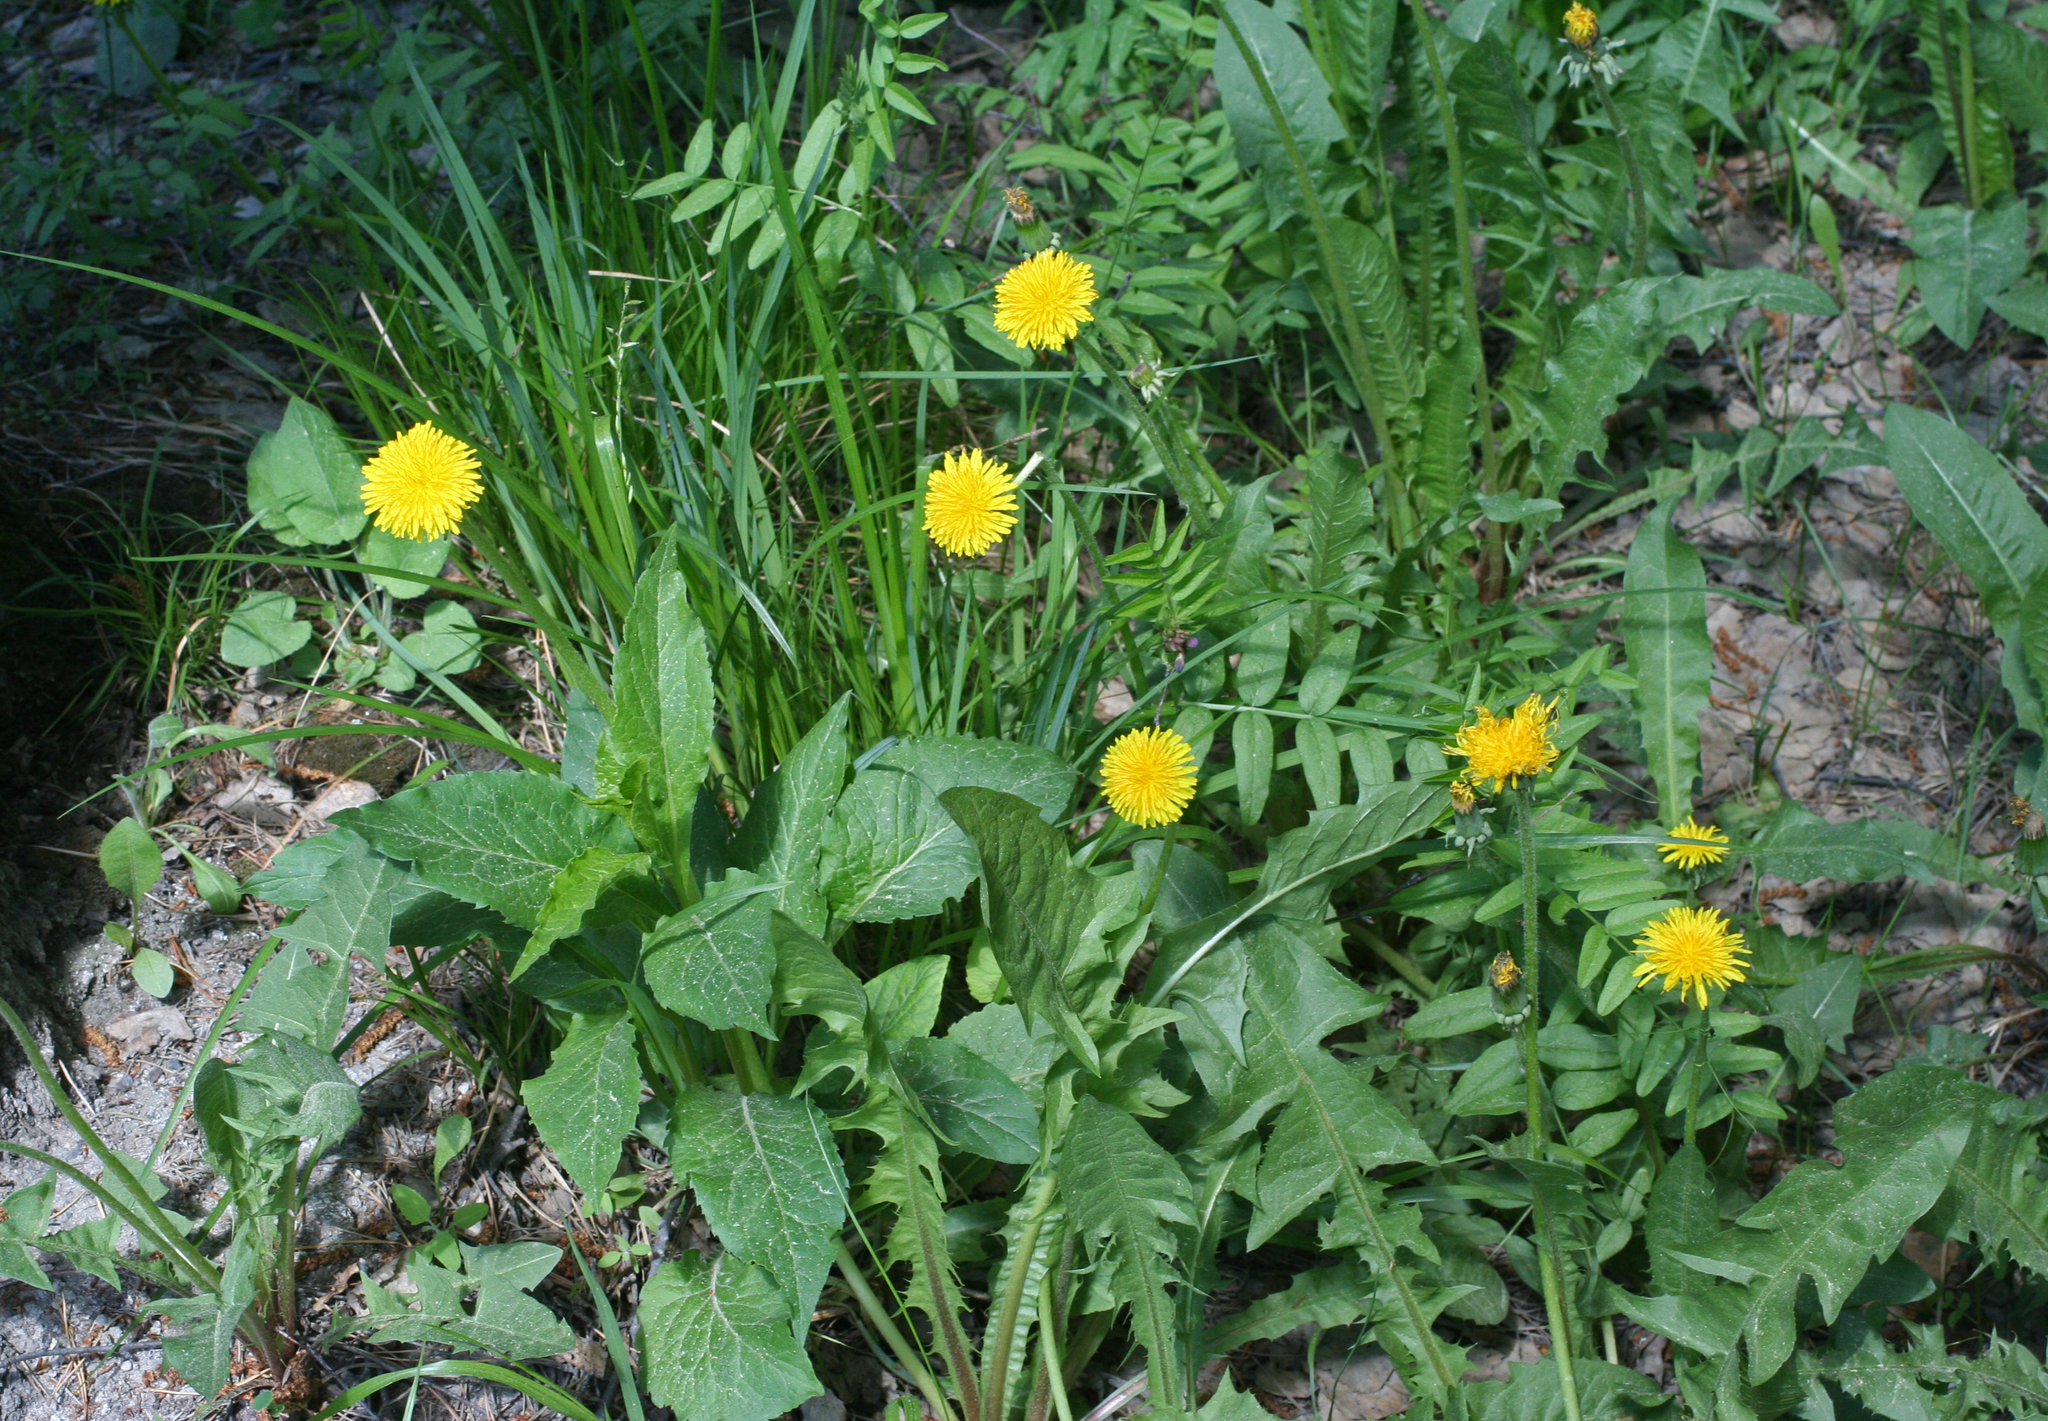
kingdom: Plantae
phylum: Tracheophyta
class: Magnoliopsida
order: Asterales
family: Asteraceae
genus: Taraxacum
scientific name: Taraxacum officinale
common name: Common dandelion
